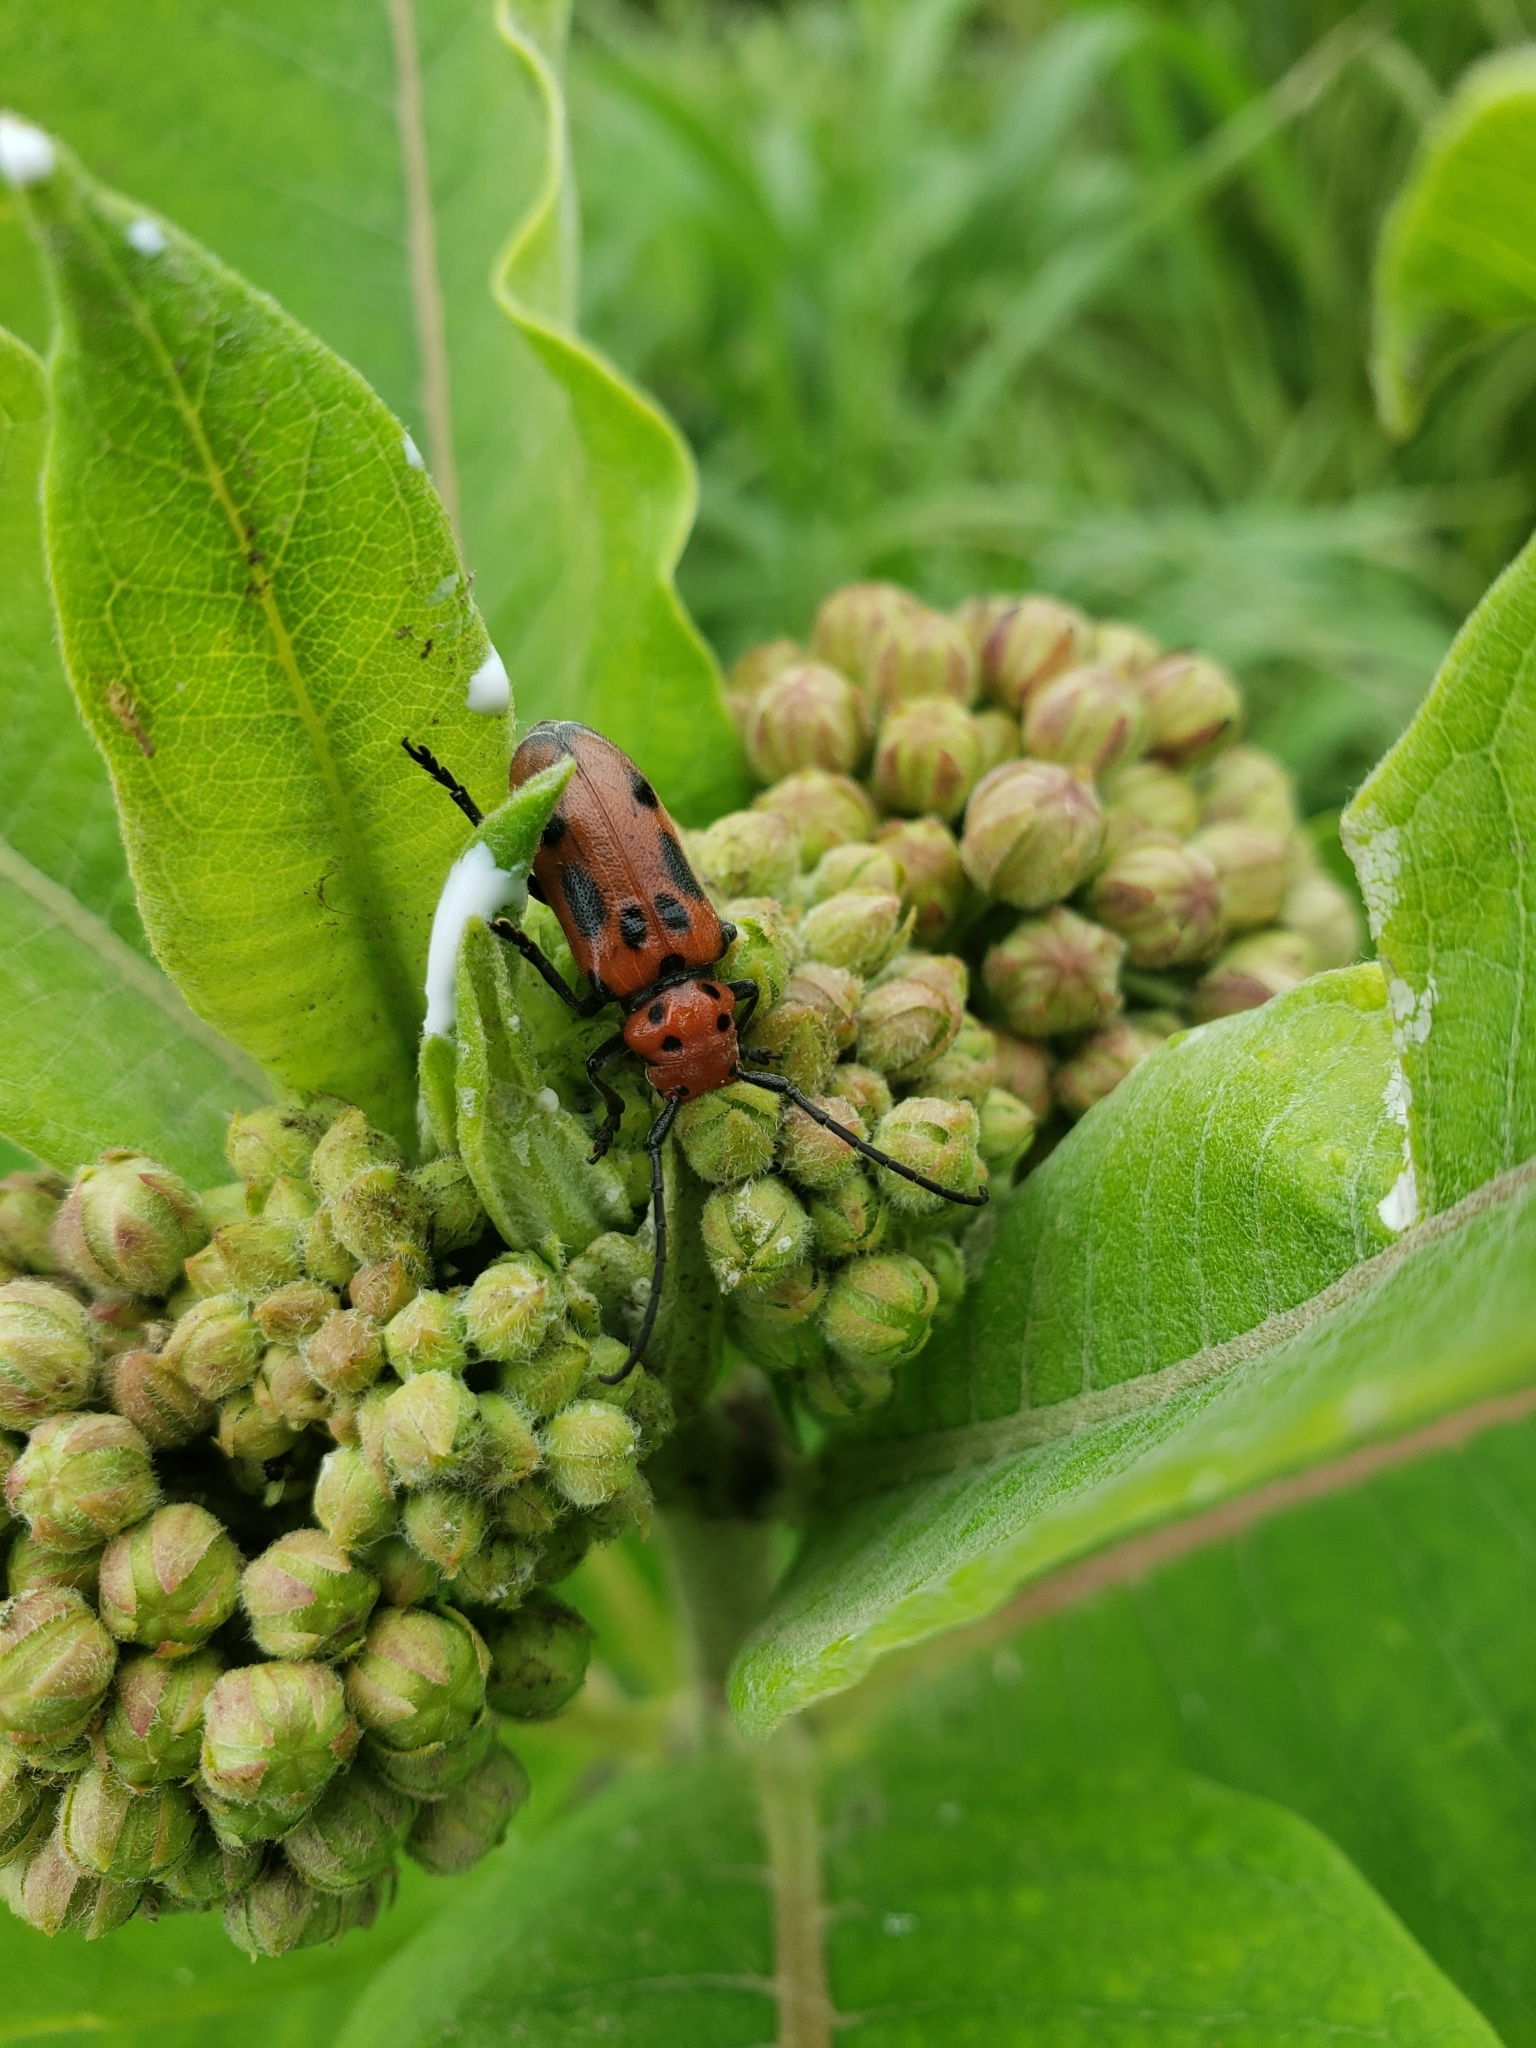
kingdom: Animalia
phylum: Arthropoda
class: Insecta
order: Coleoptera
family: Cerambycidae
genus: Tetraopes
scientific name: Tetraopes tetrophthalmus
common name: Red milkweed beetle
